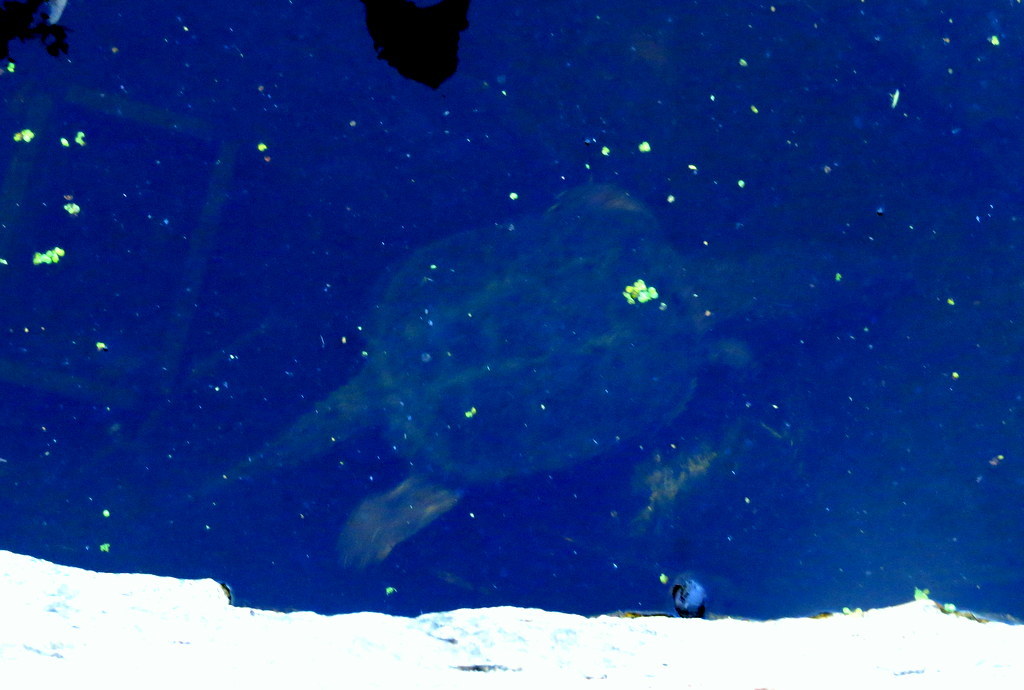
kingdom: Animalia
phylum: Chordata
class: Testudines
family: Chelydridae
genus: Chelydra
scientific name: Chelydra serpentina
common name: Common snapping turtle
